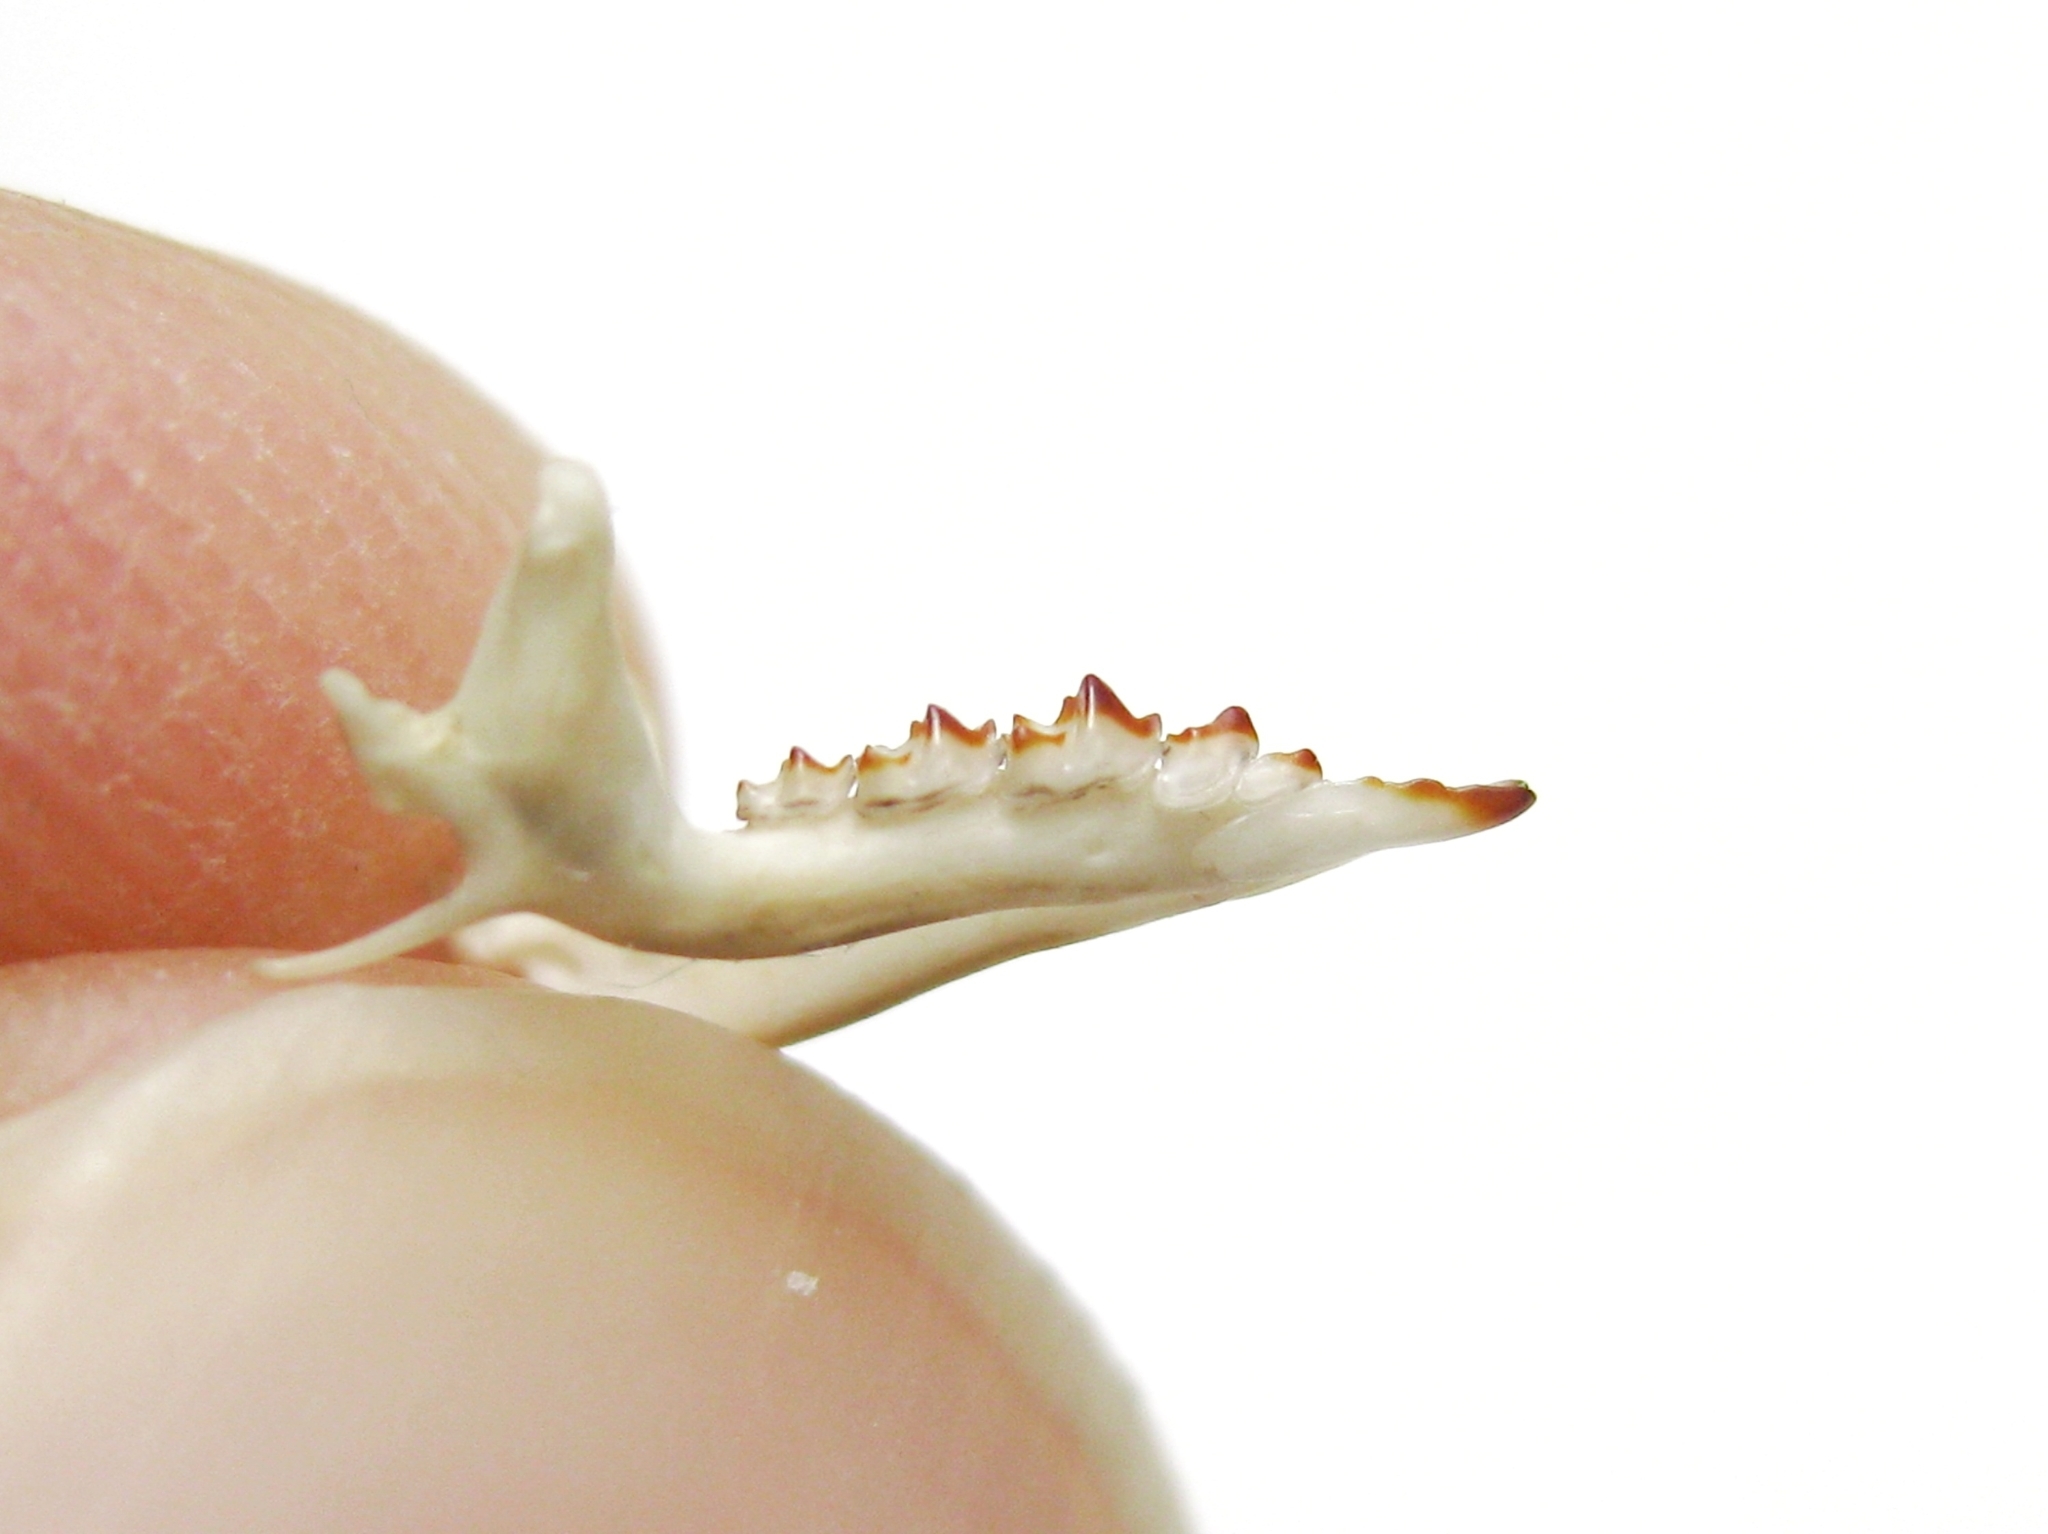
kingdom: Animalia
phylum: Chordata
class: Mammalia
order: Soricomorpha
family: Soricidae
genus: Sorex
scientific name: Sorex volnuchini
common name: Caucasian pygmy shrew
